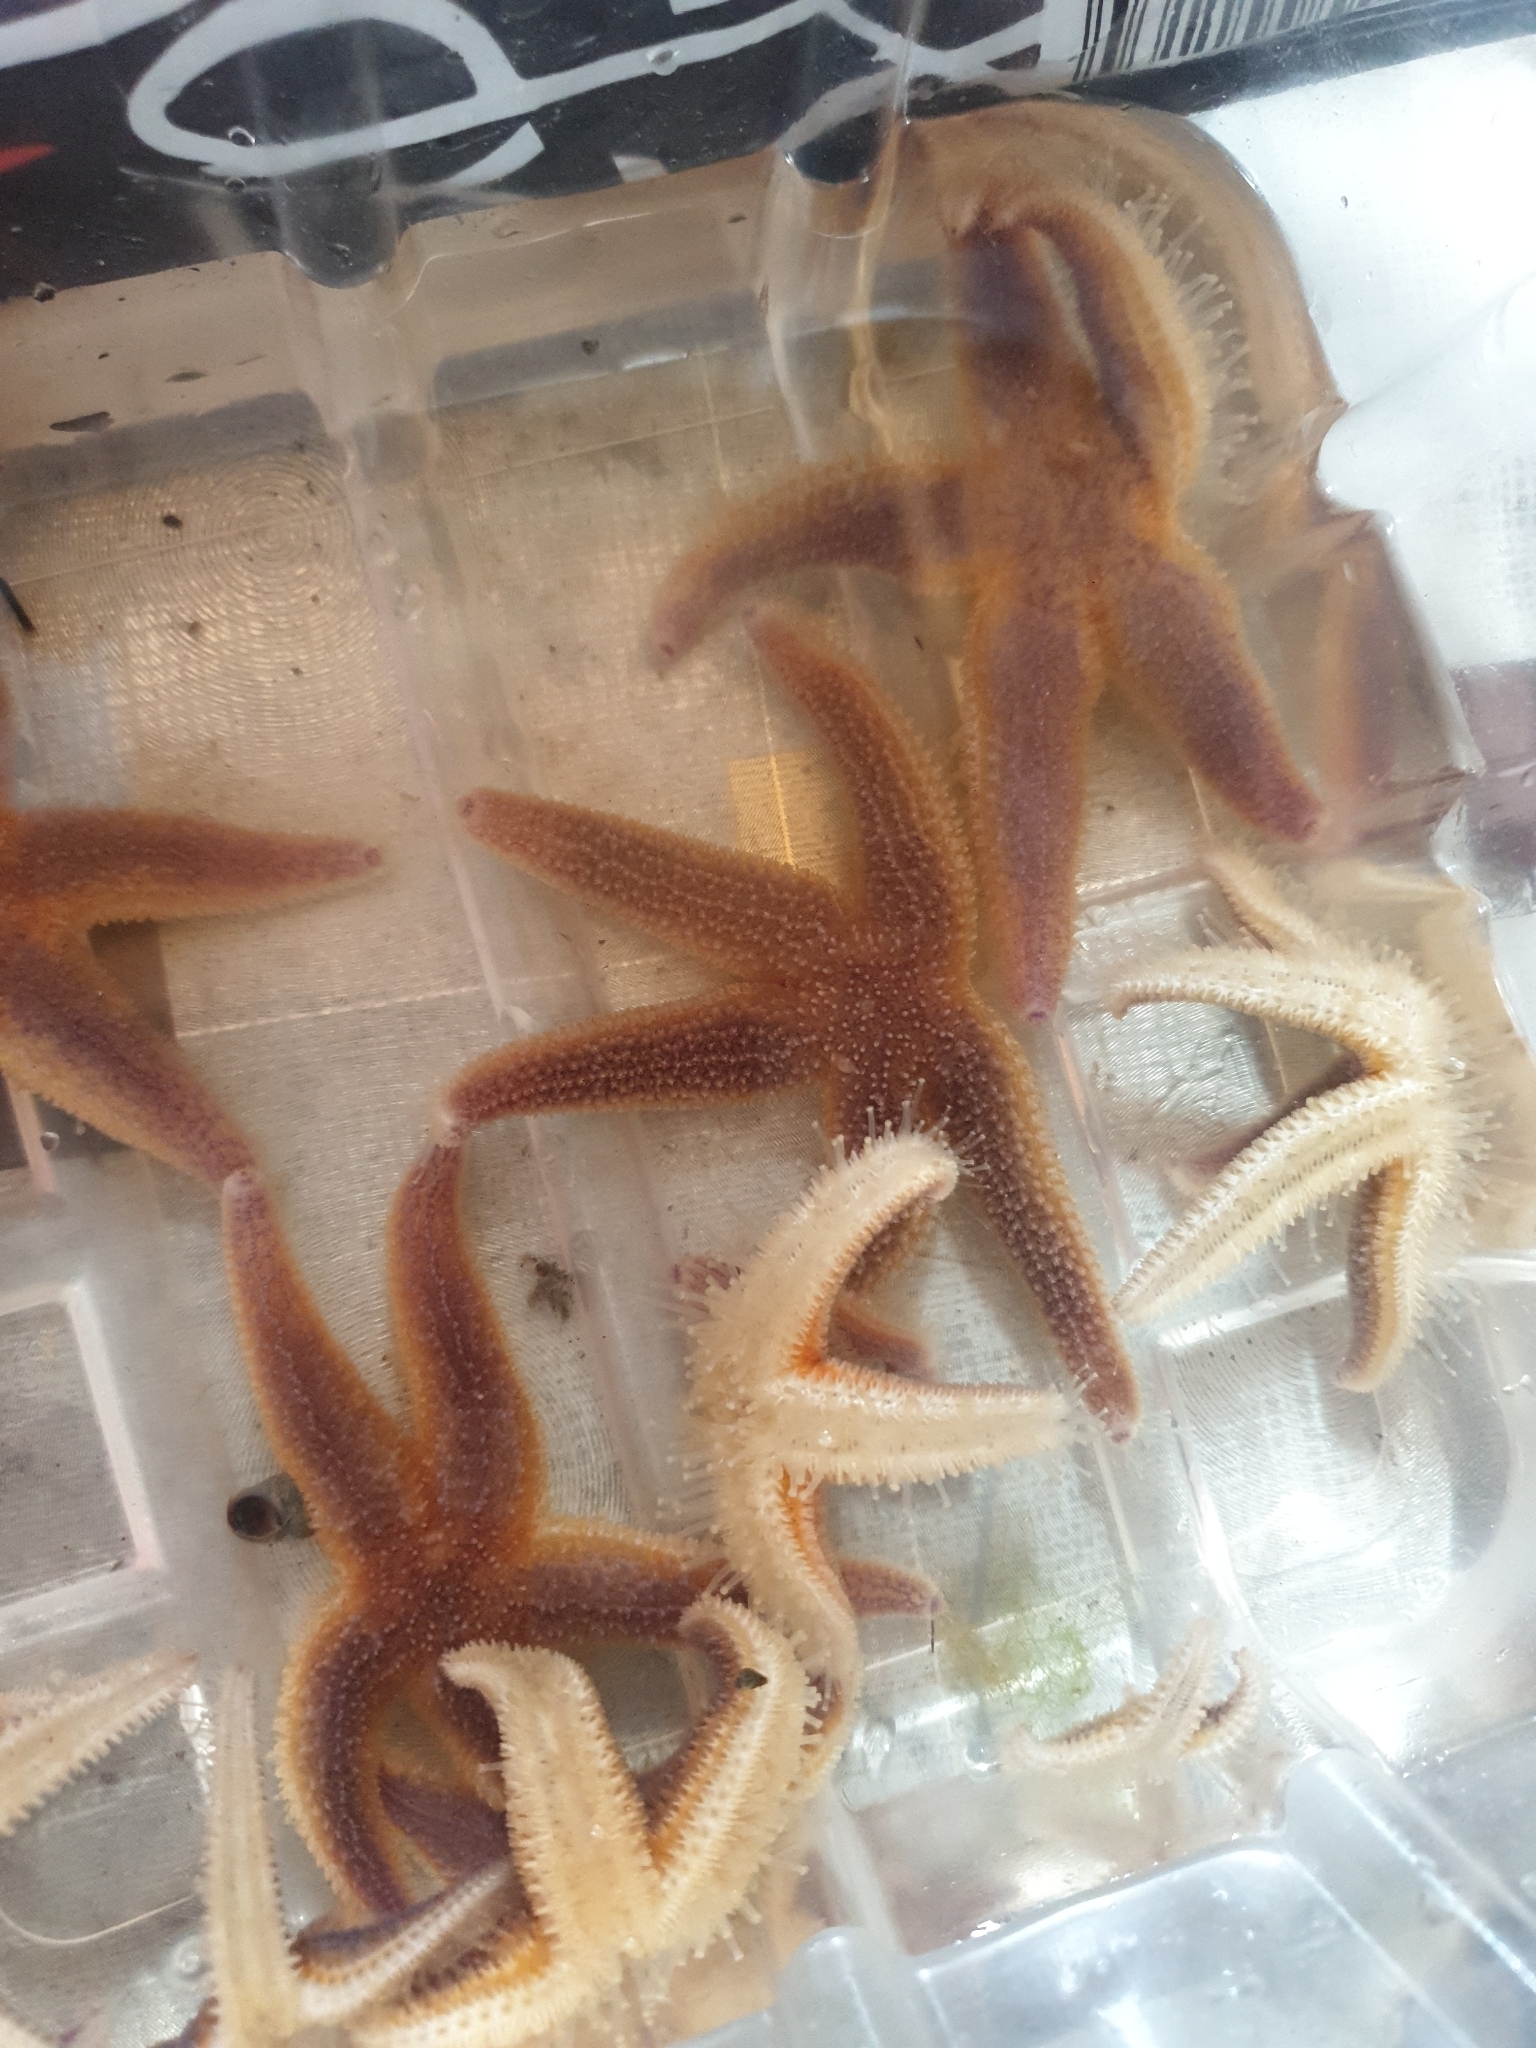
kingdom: Animalia
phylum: Echinodermata
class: Asteroidea
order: Forcipulatida
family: Asteriidae
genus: Asterias
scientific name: Asterias rubens
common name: Common starfish
